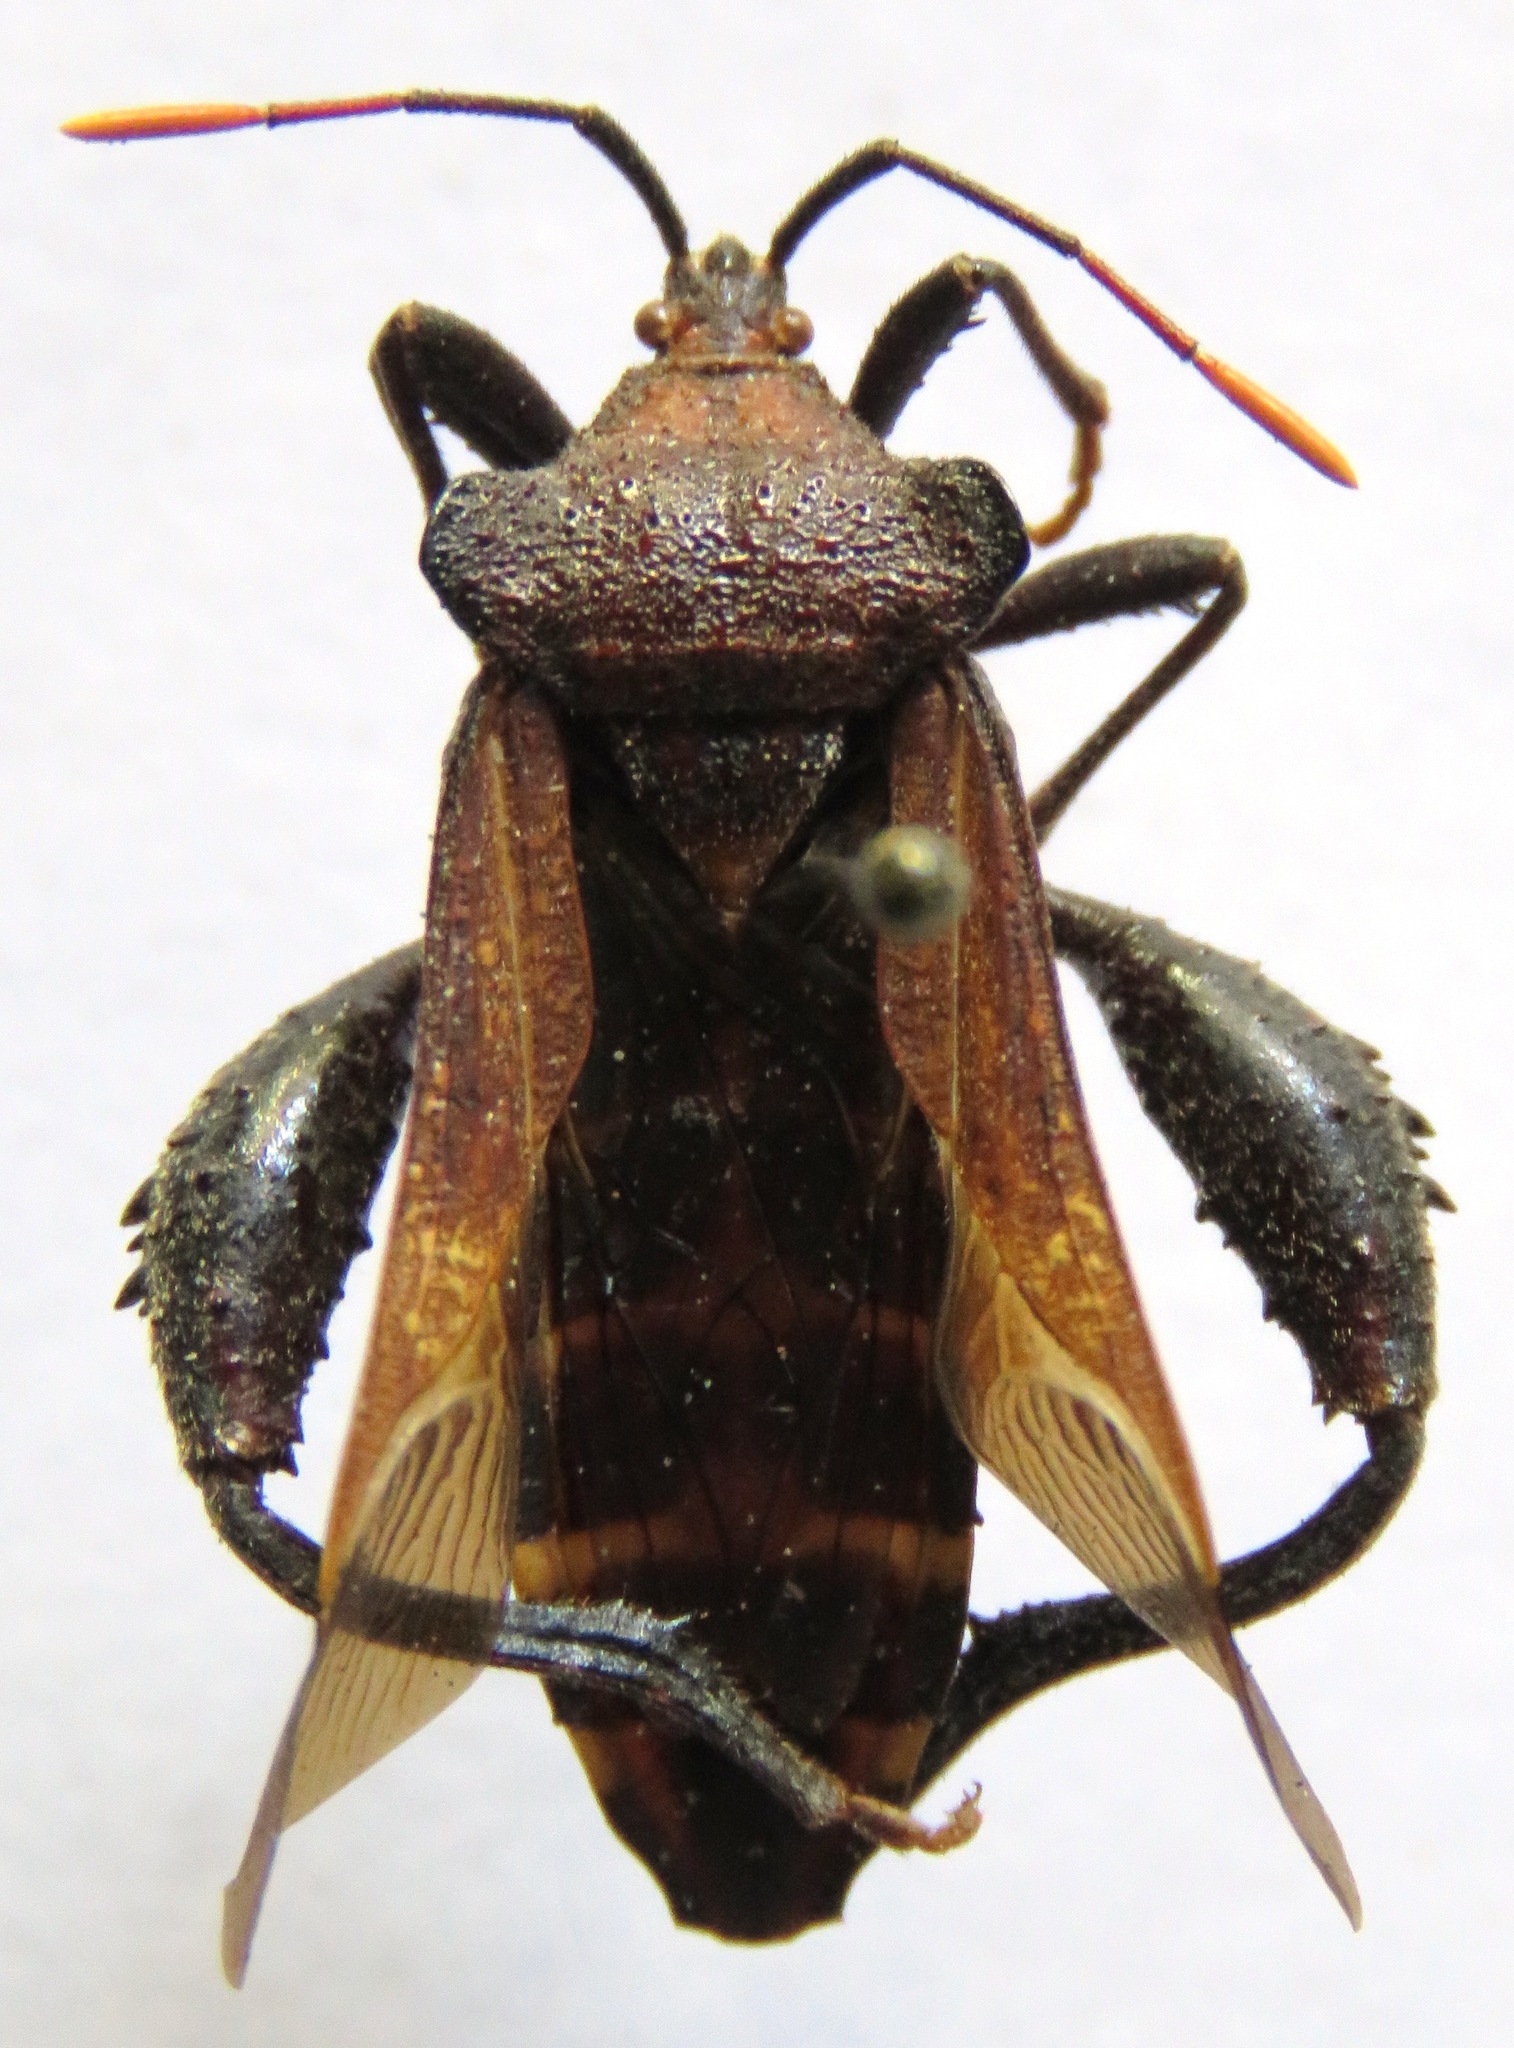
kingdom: Animalia
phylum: Arthropoda
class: Insecta
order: Hemiptera
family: Coreidae
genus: Piezogaster
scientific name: Piezogaster chiriquinus
